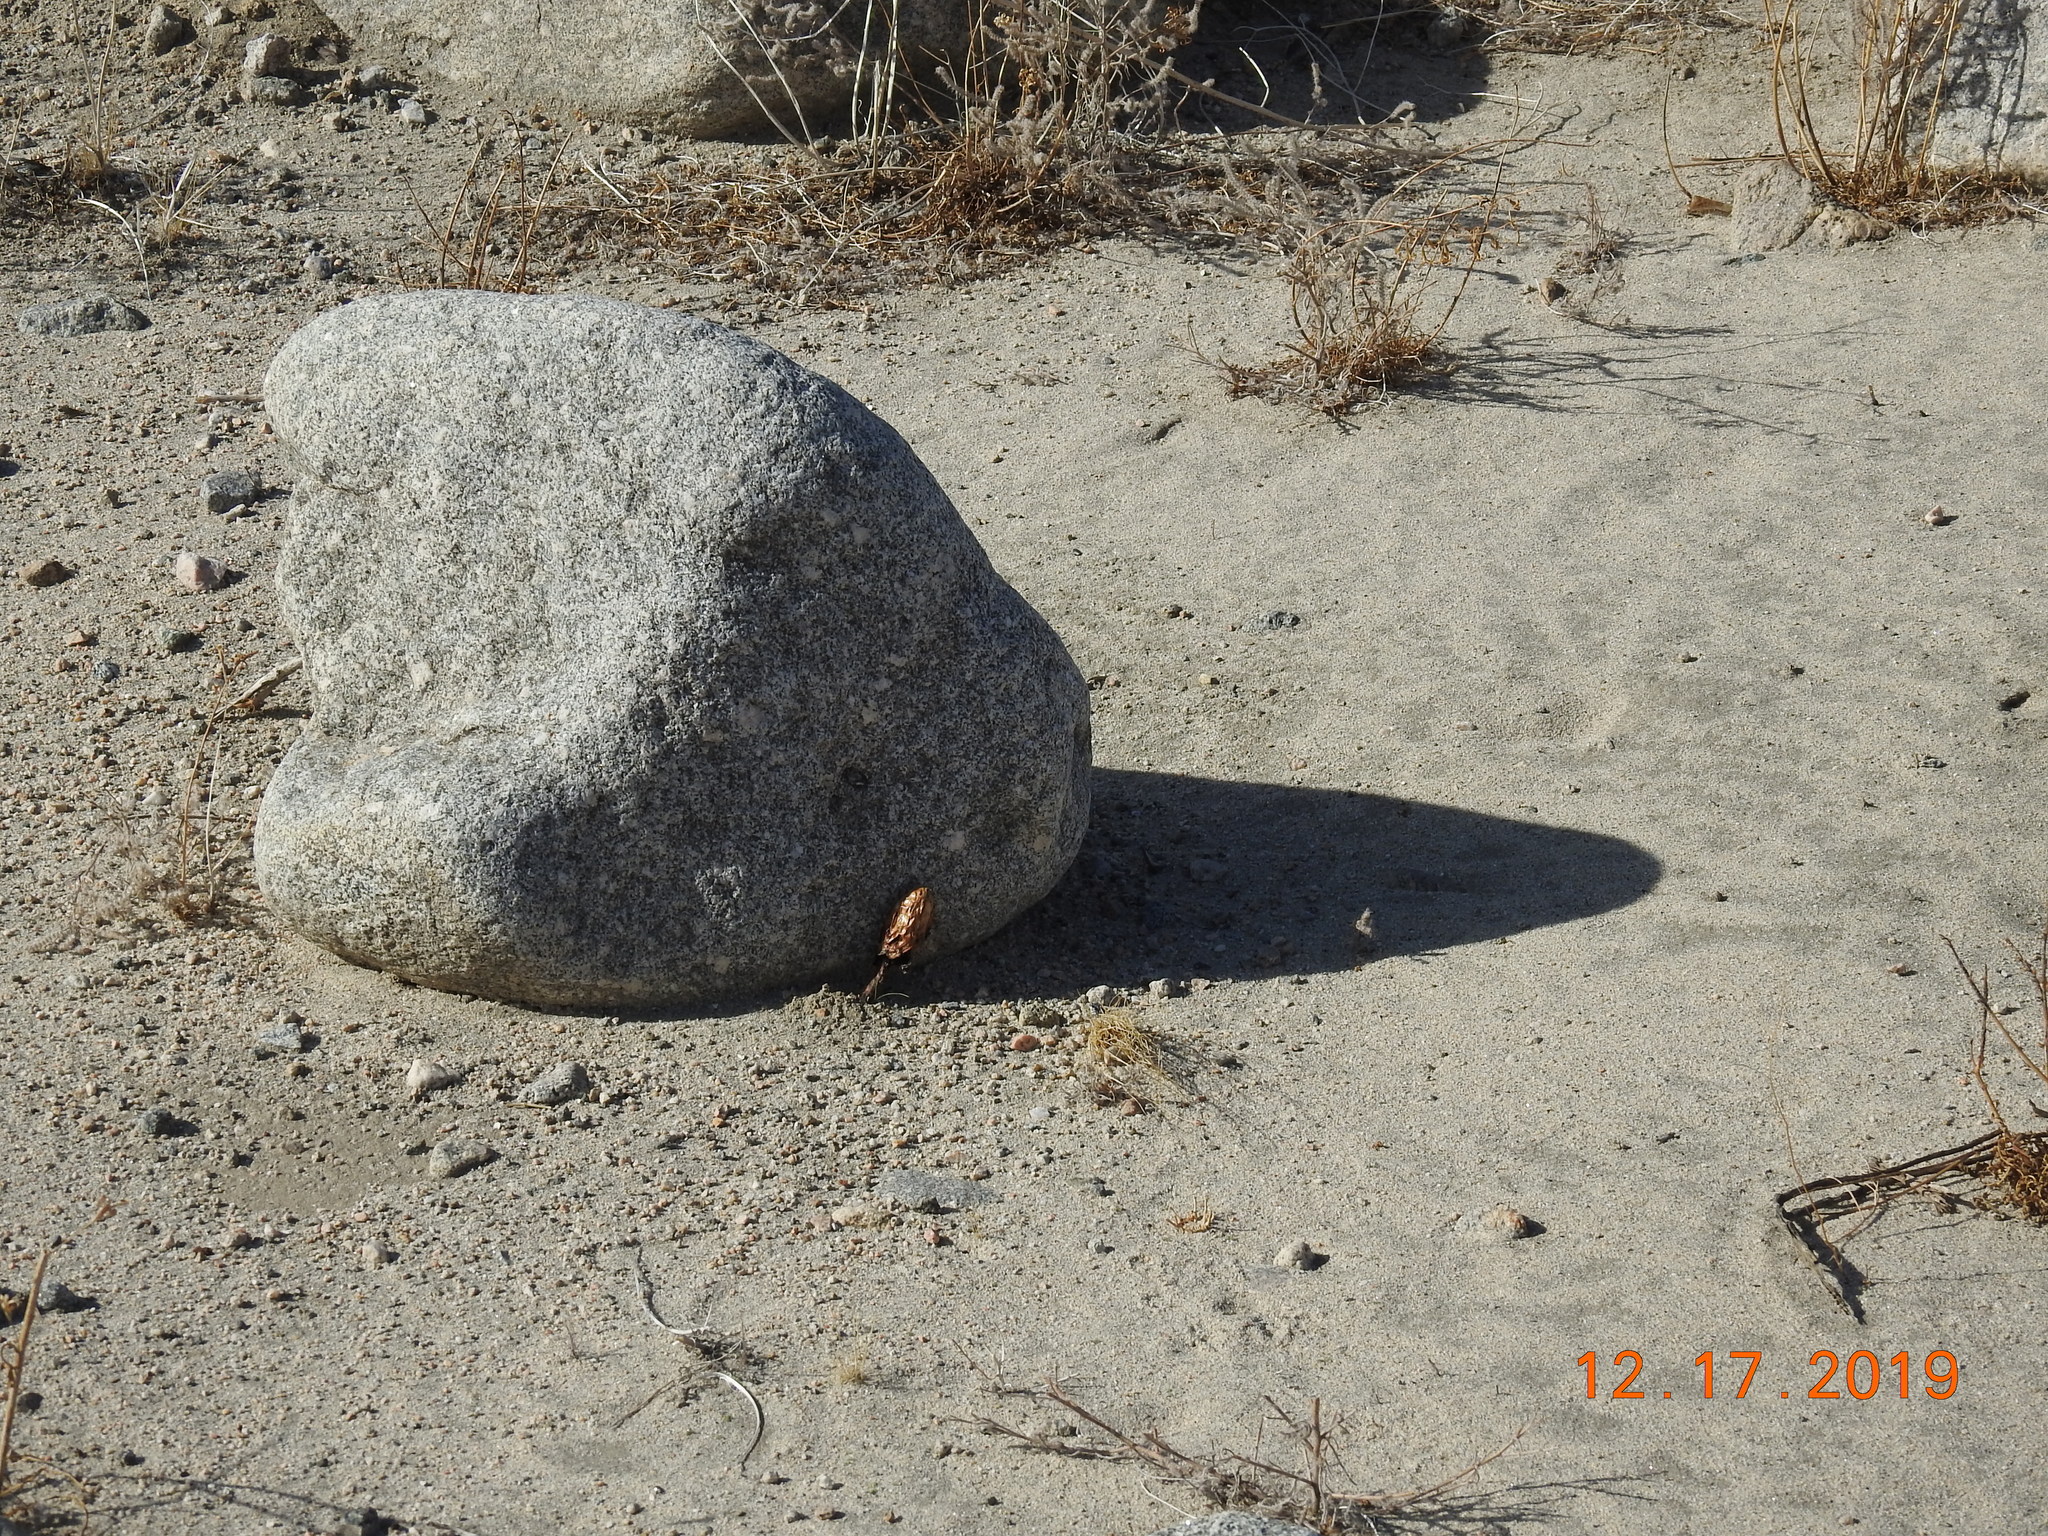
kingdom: Fungi
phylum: Basidiomycota
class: Agaricomycetes
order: Agaricales
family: Agaricaceae
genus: Podaxis
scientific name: Podaxis pistillaris
